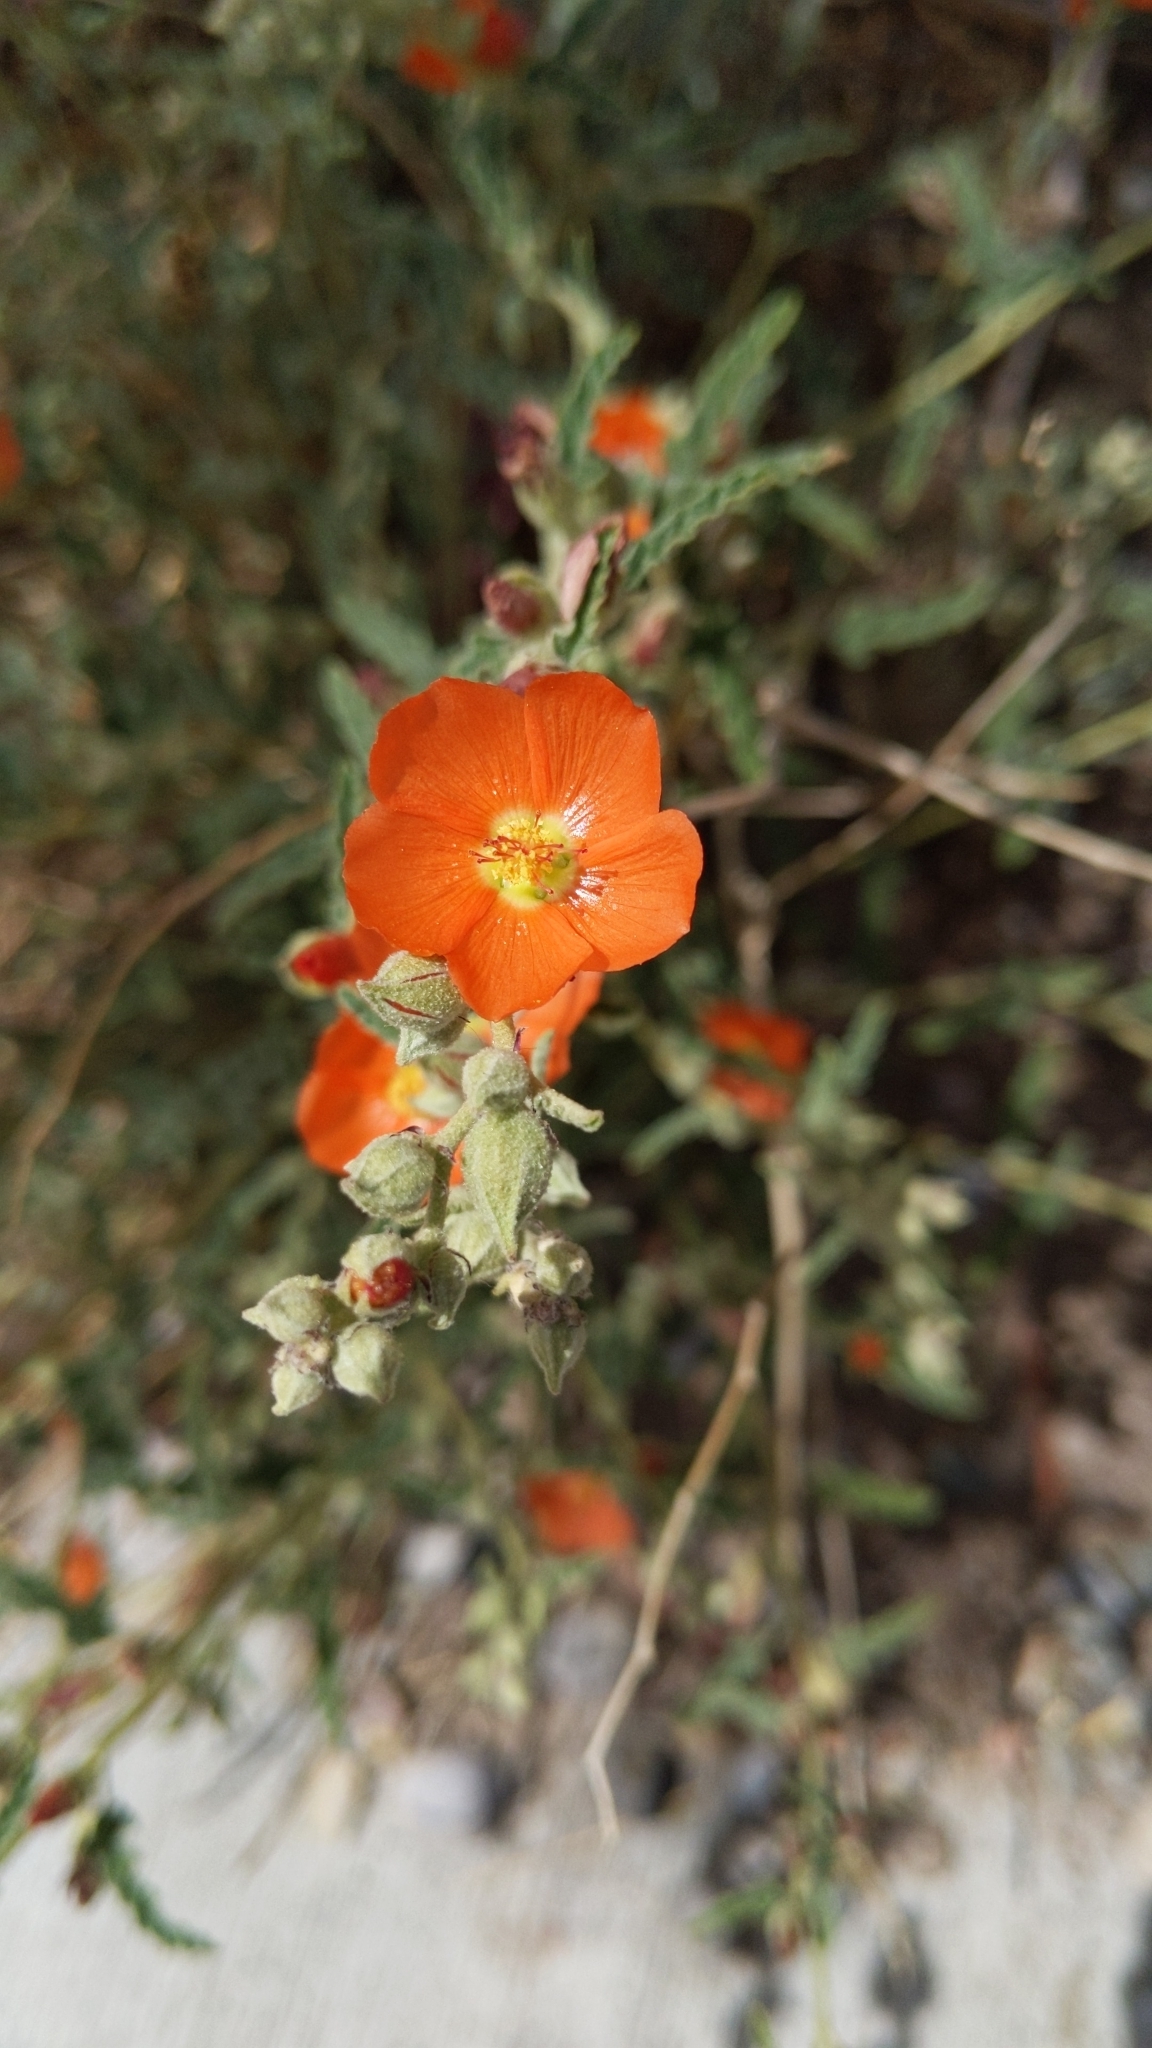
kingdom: Plantae
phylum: Tracheophyta
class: Magnoliopsida
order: Malvales
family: Malvaceae
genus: Sphaeralcea
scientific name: Sphaeralcea hastulata
